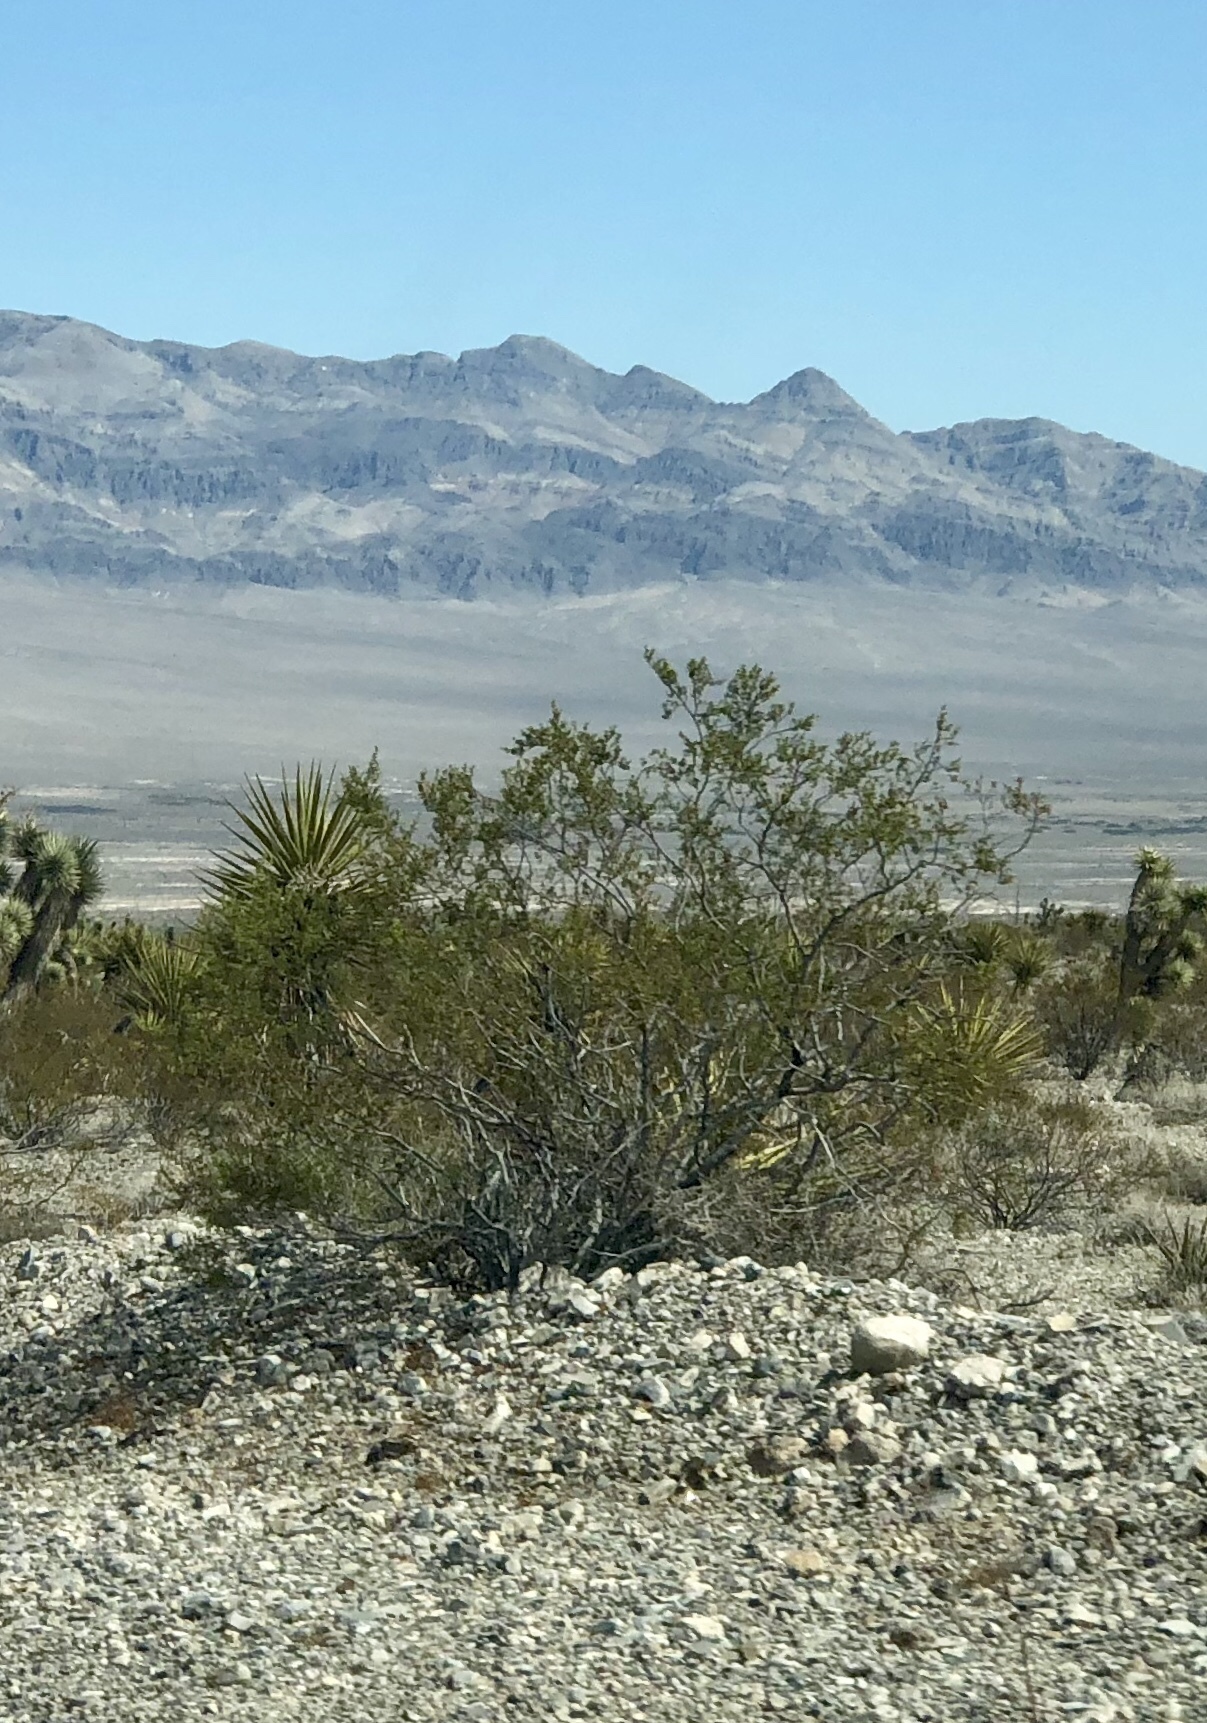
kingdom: Plantae
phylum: Tracheophyta
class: Magnoliopsida
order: Zygophyllales
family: Zygophyllaceae
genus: Larrea
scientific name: Larrea tridentata
